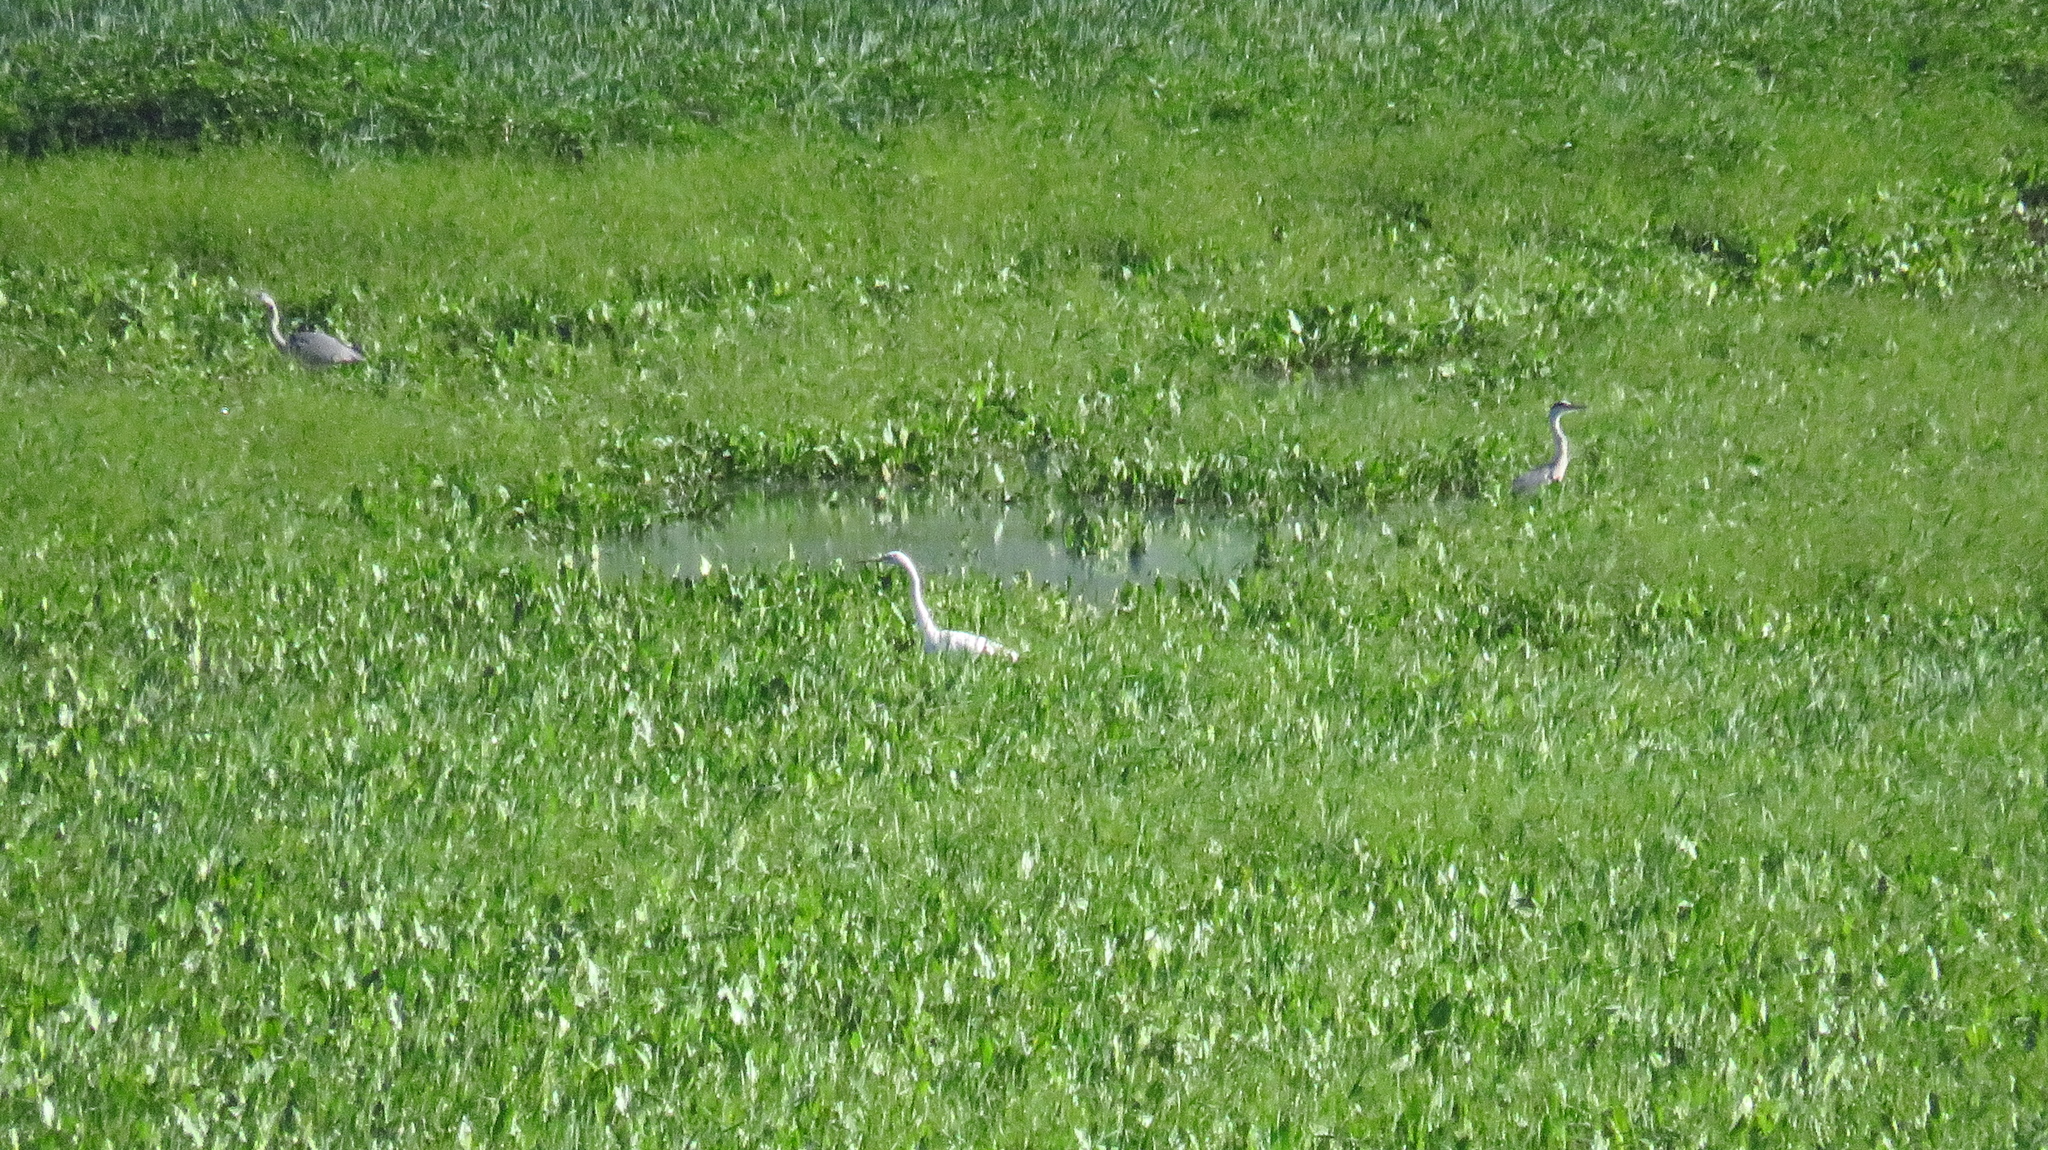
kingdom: Animalia
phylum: Chordata
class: Aves
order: Pelecaniformes
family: Ardeidae
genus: Ardea
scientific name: Ardea cinerea
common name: Grey heron
